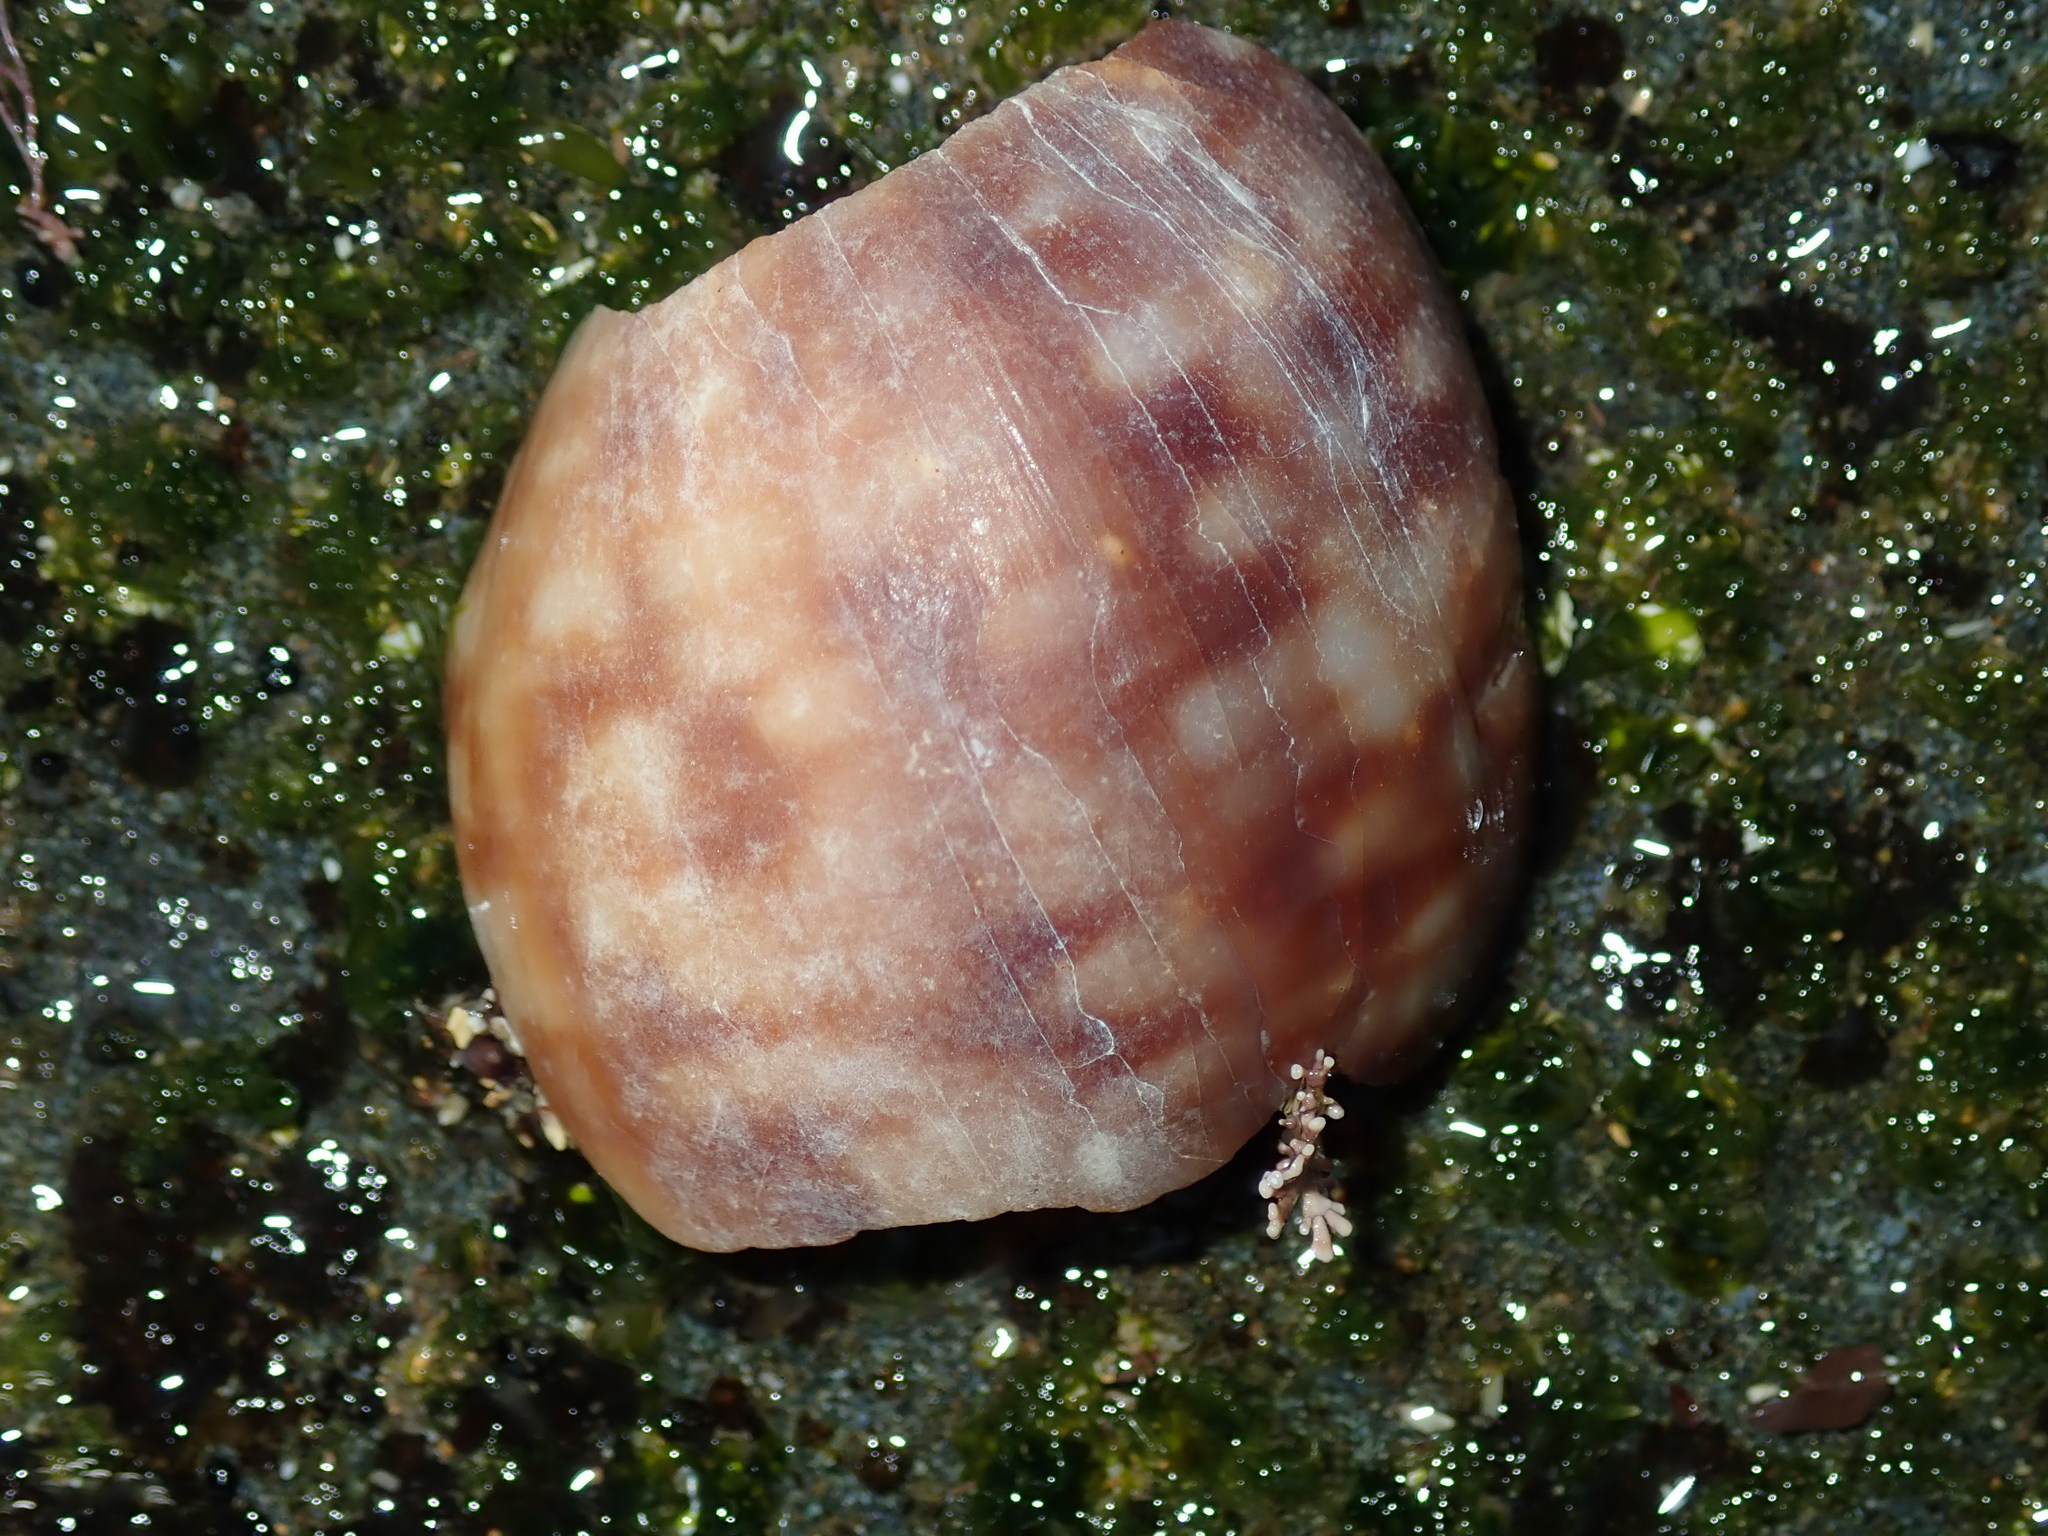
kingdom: Animalia
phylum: Mollusca
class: Gastropoda
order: Littorinimorpha
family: Cassidae
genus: Semicassis
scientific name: Semicassis labiata
